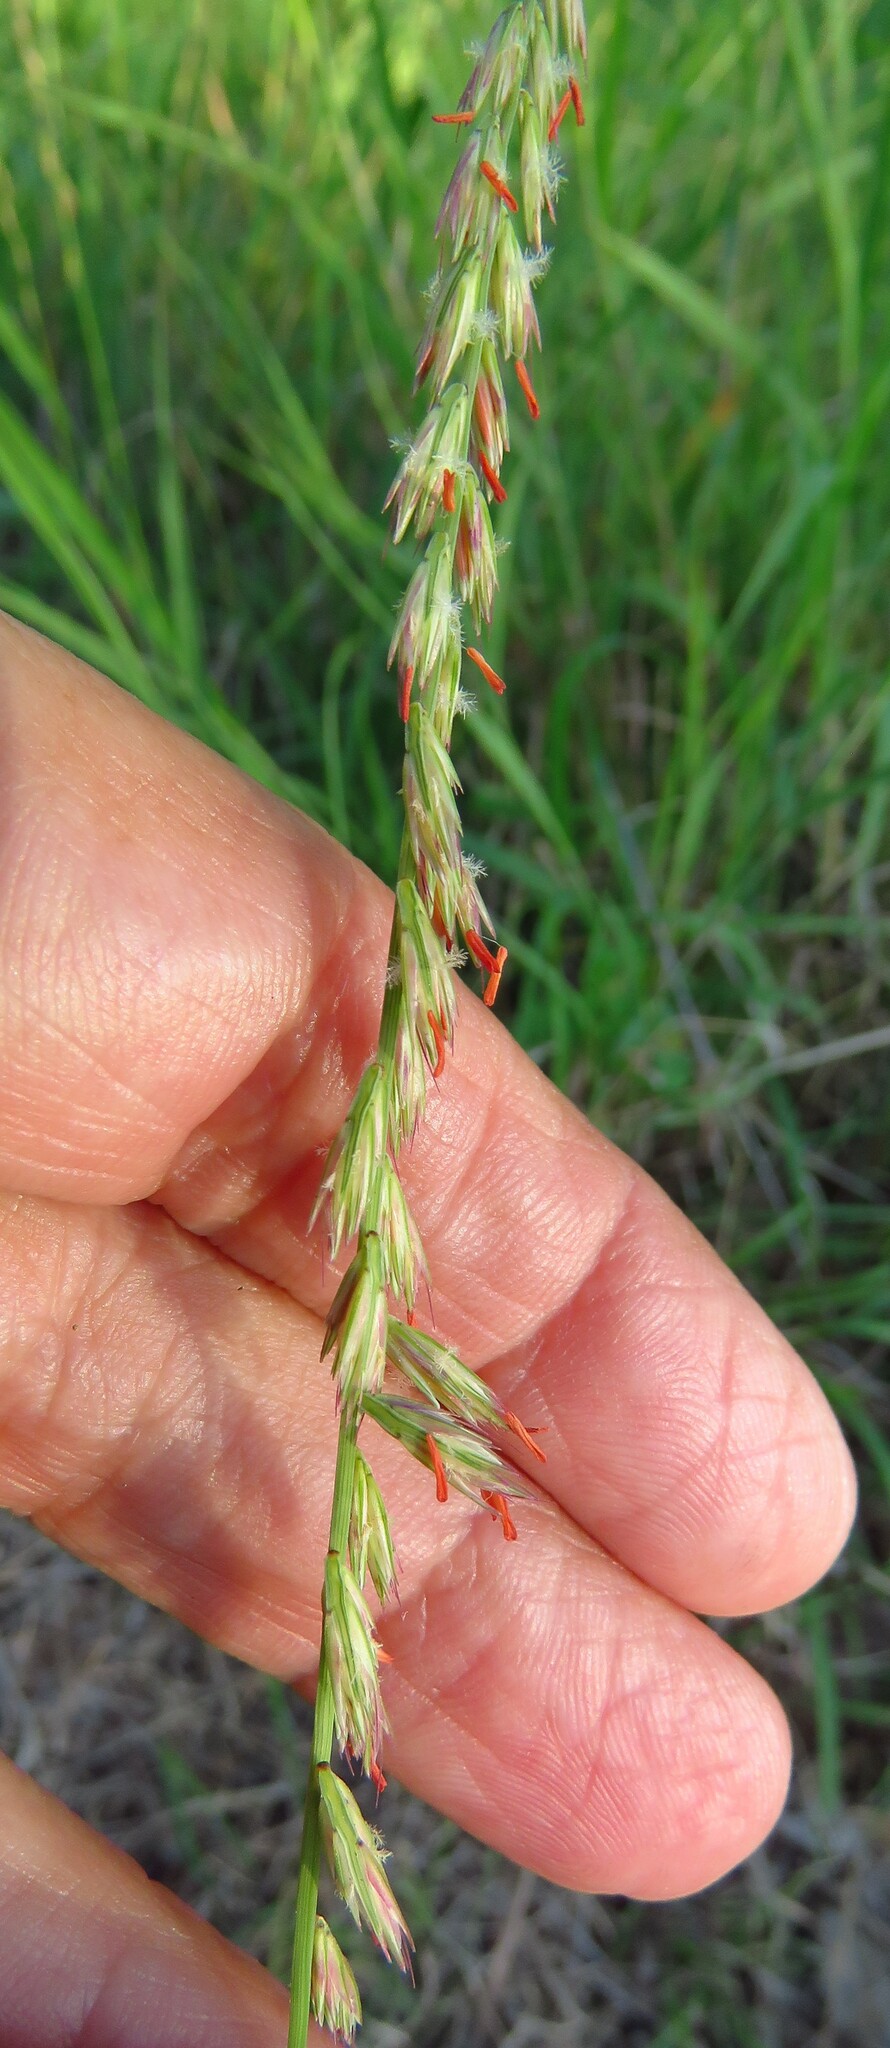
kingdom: Plantae
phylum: Tracheophyta
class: Liliopsida
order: Poales
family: Poaceae
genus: Bouteloua
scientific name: Bouteloua curtipendula
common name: Side-oats grama
